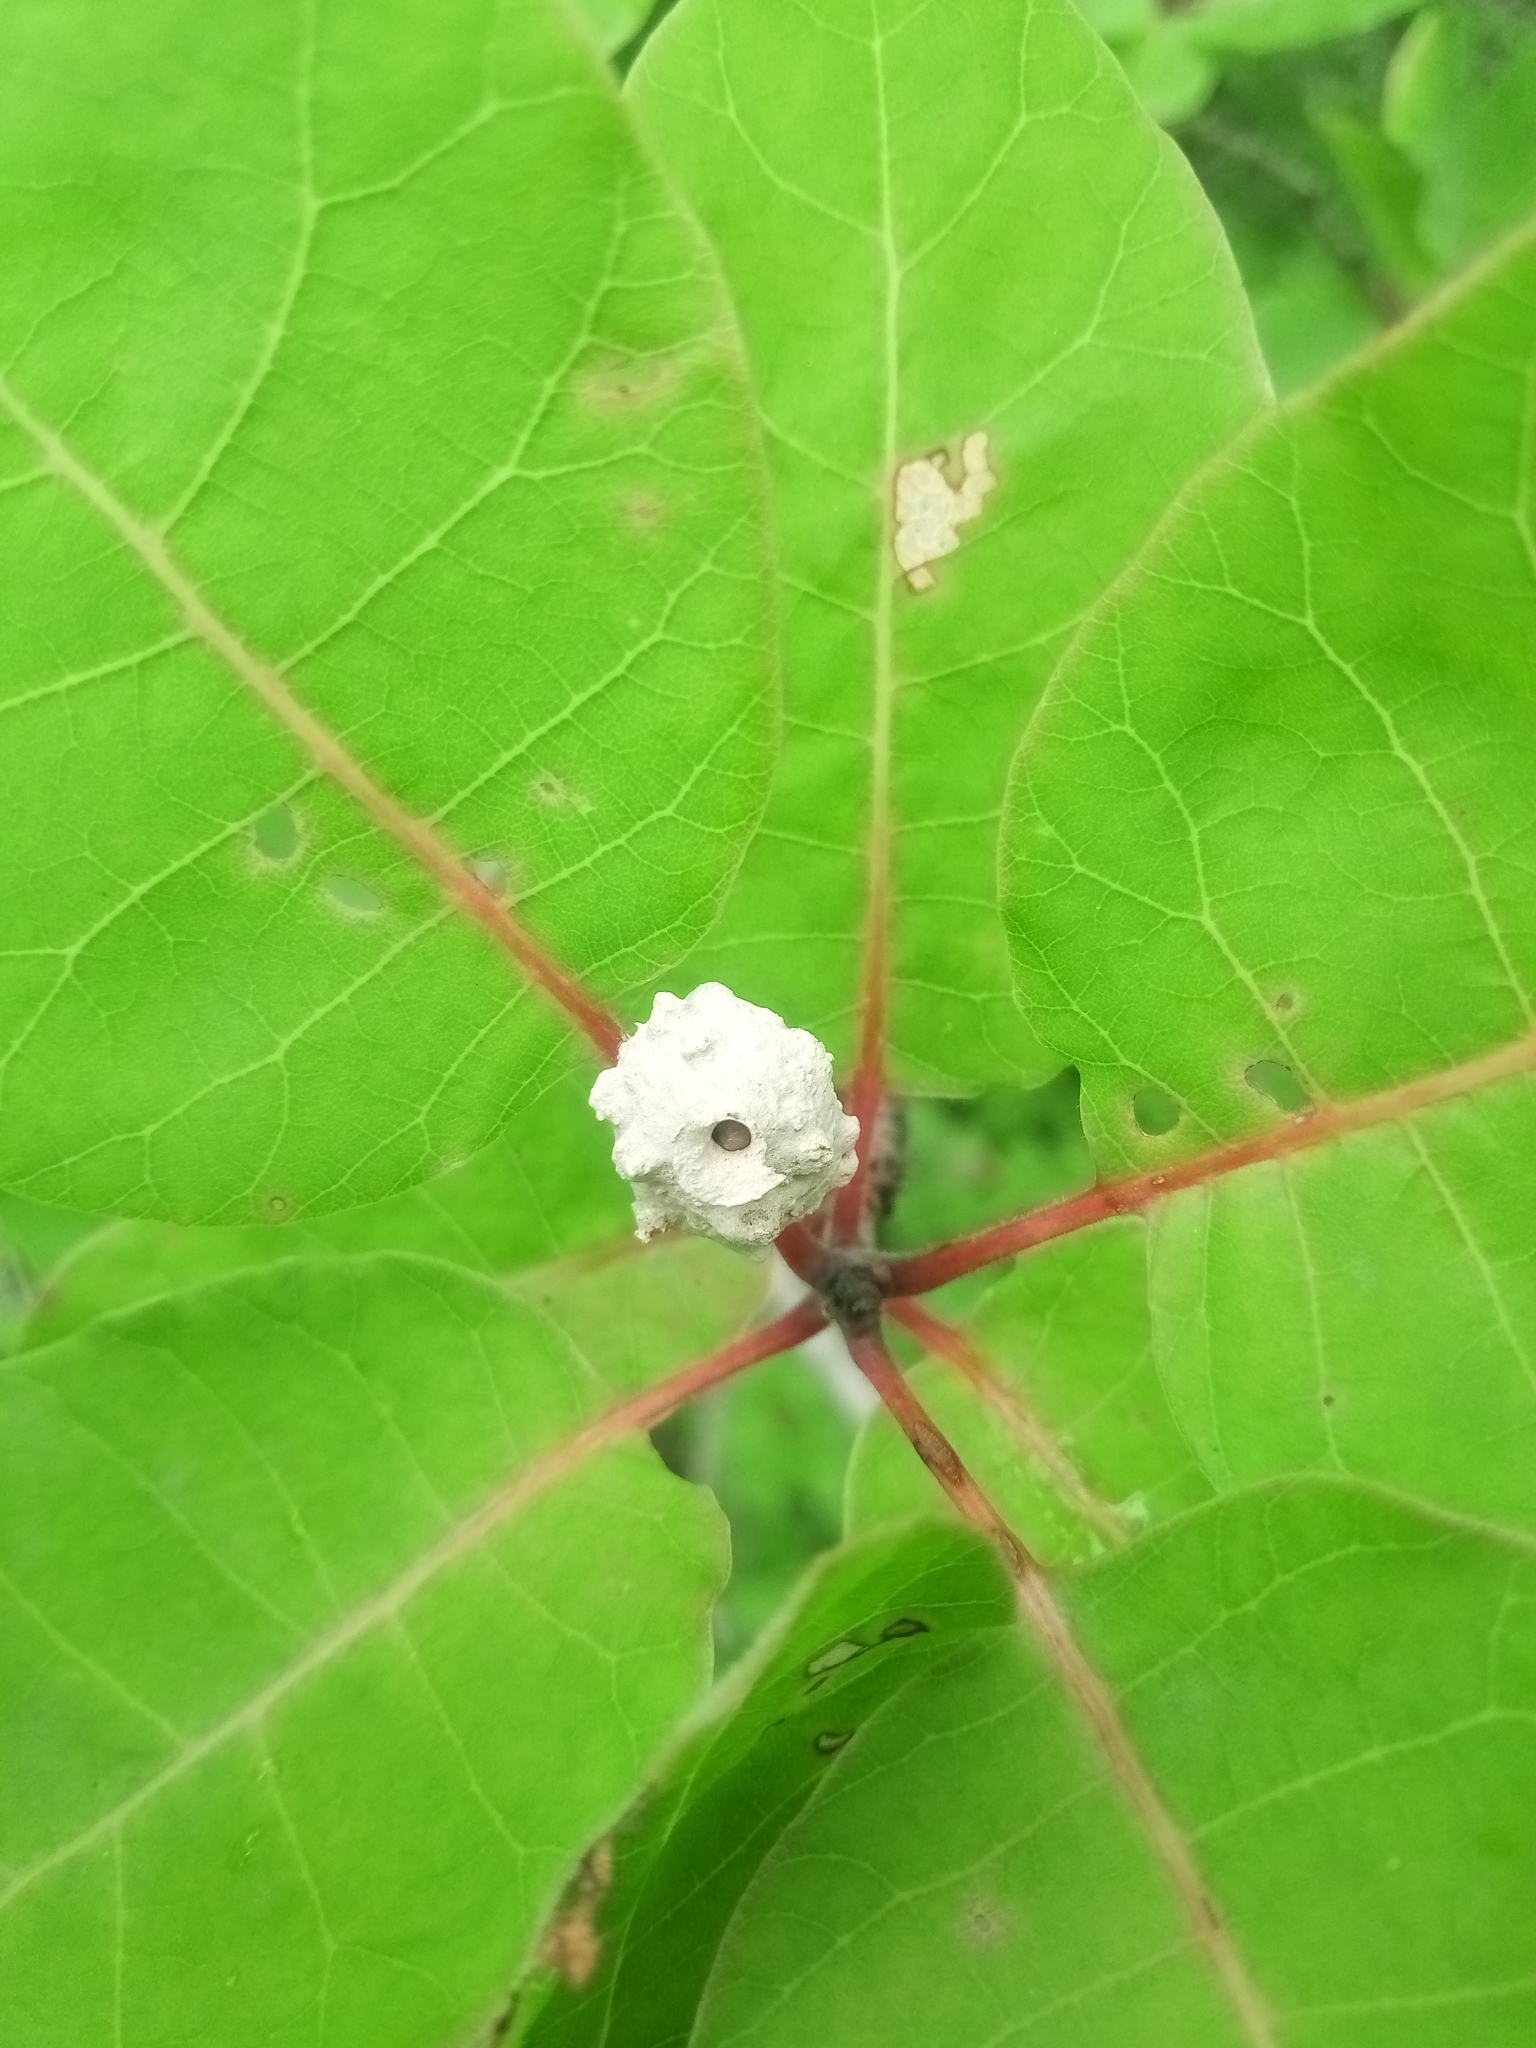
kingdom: Animalia
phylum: Arthropoda
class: Insecta
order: Hymenoptera
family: Vespidae
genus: Eumenes
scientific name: Eumenes
